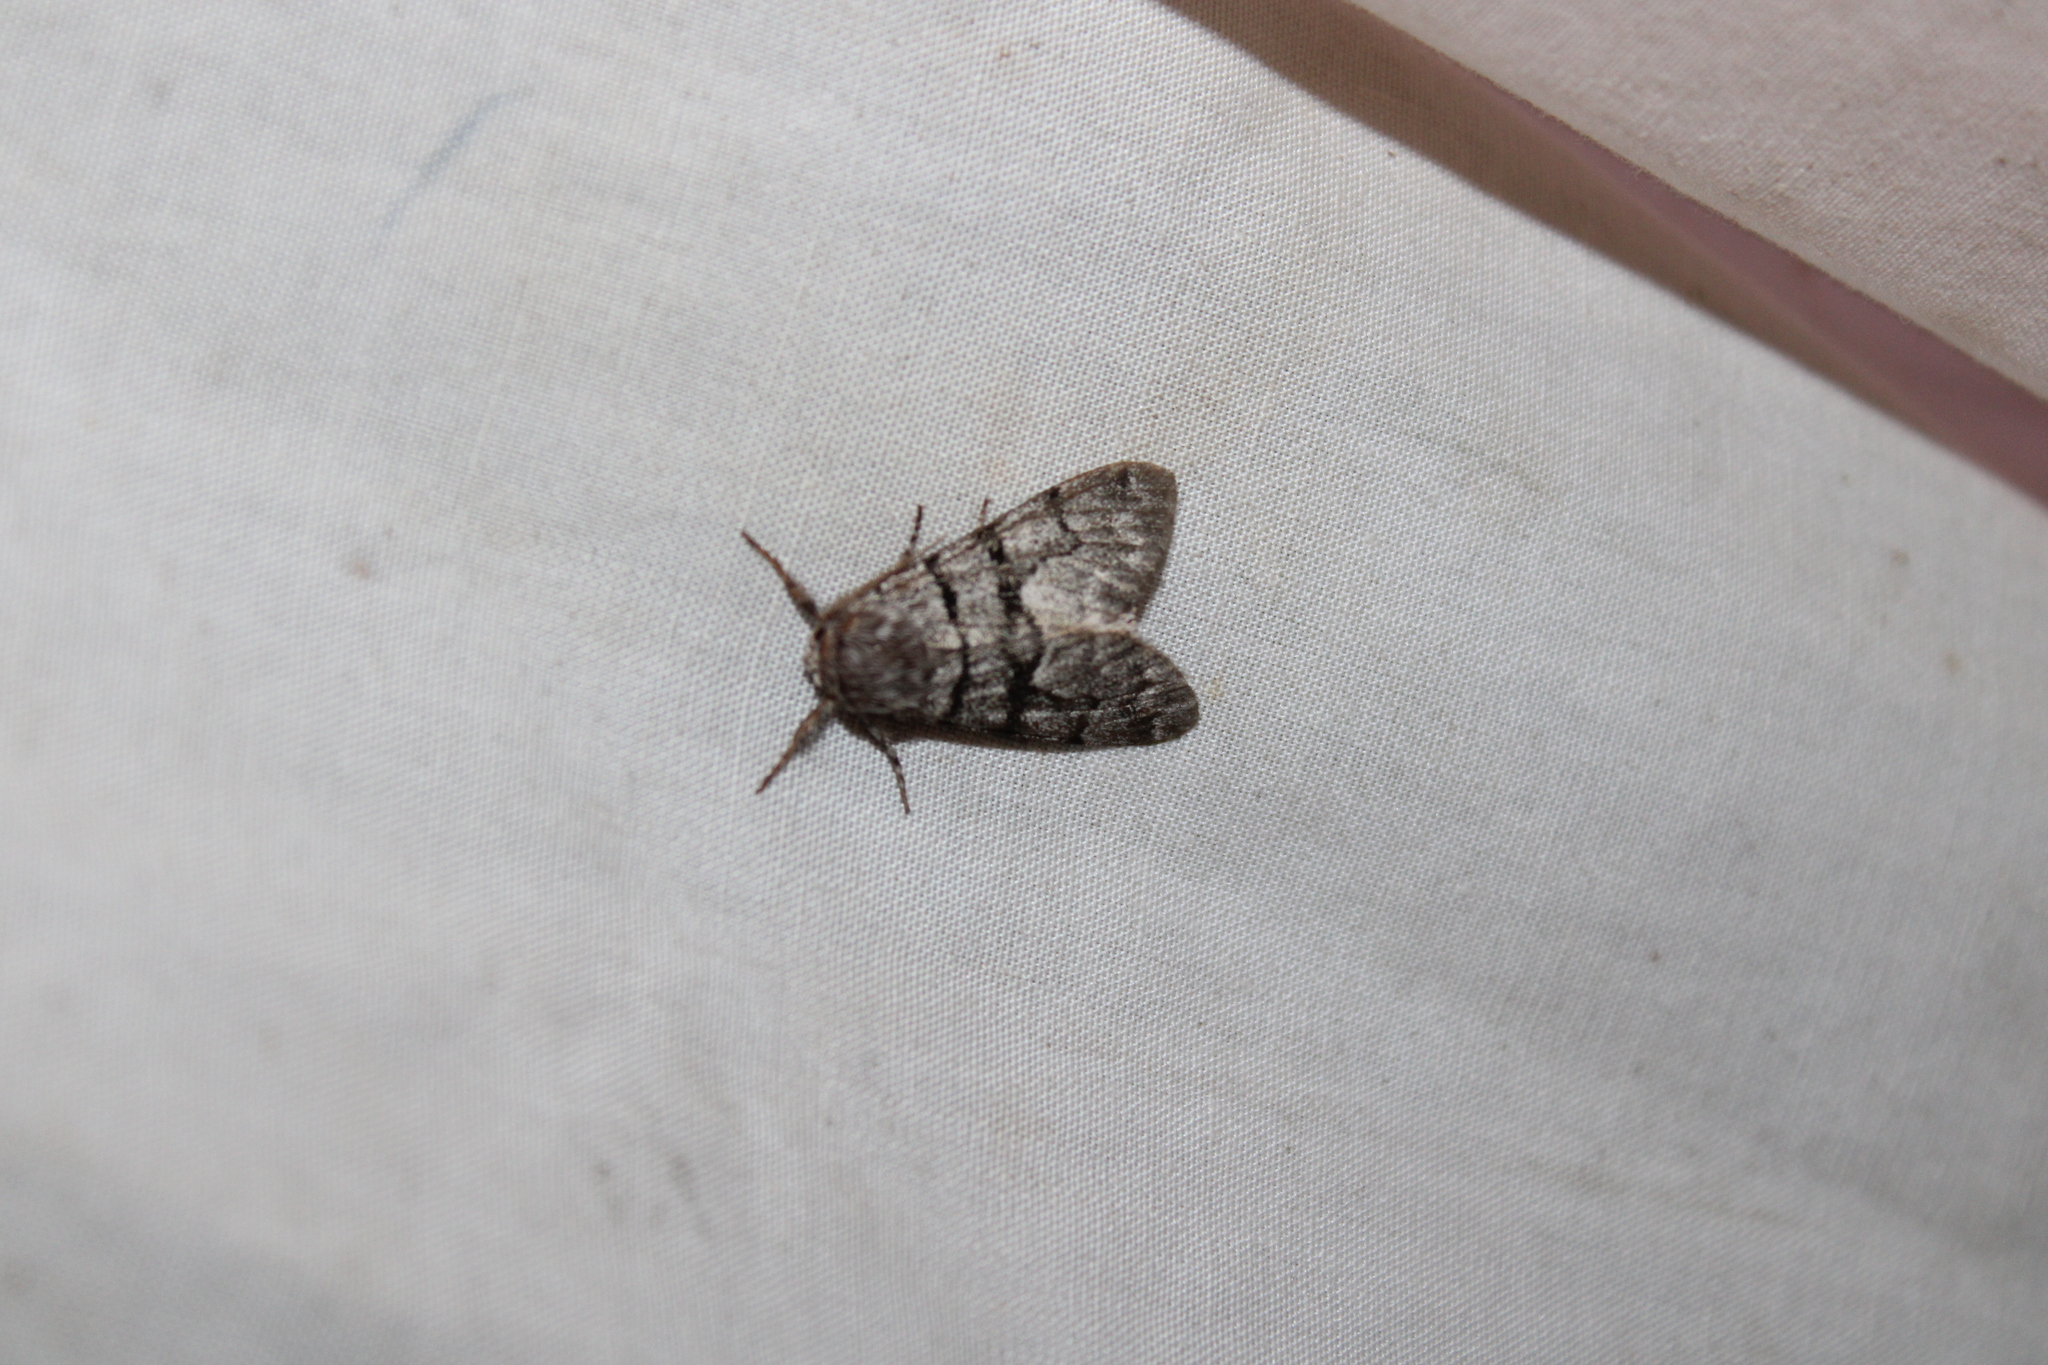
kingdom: Animalia
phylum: Arthropoda
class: Insecta
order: Lepidoptera
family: Noctuidae
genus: Panthea
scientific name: Panthea furcilla
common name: Eastern panthea moth
